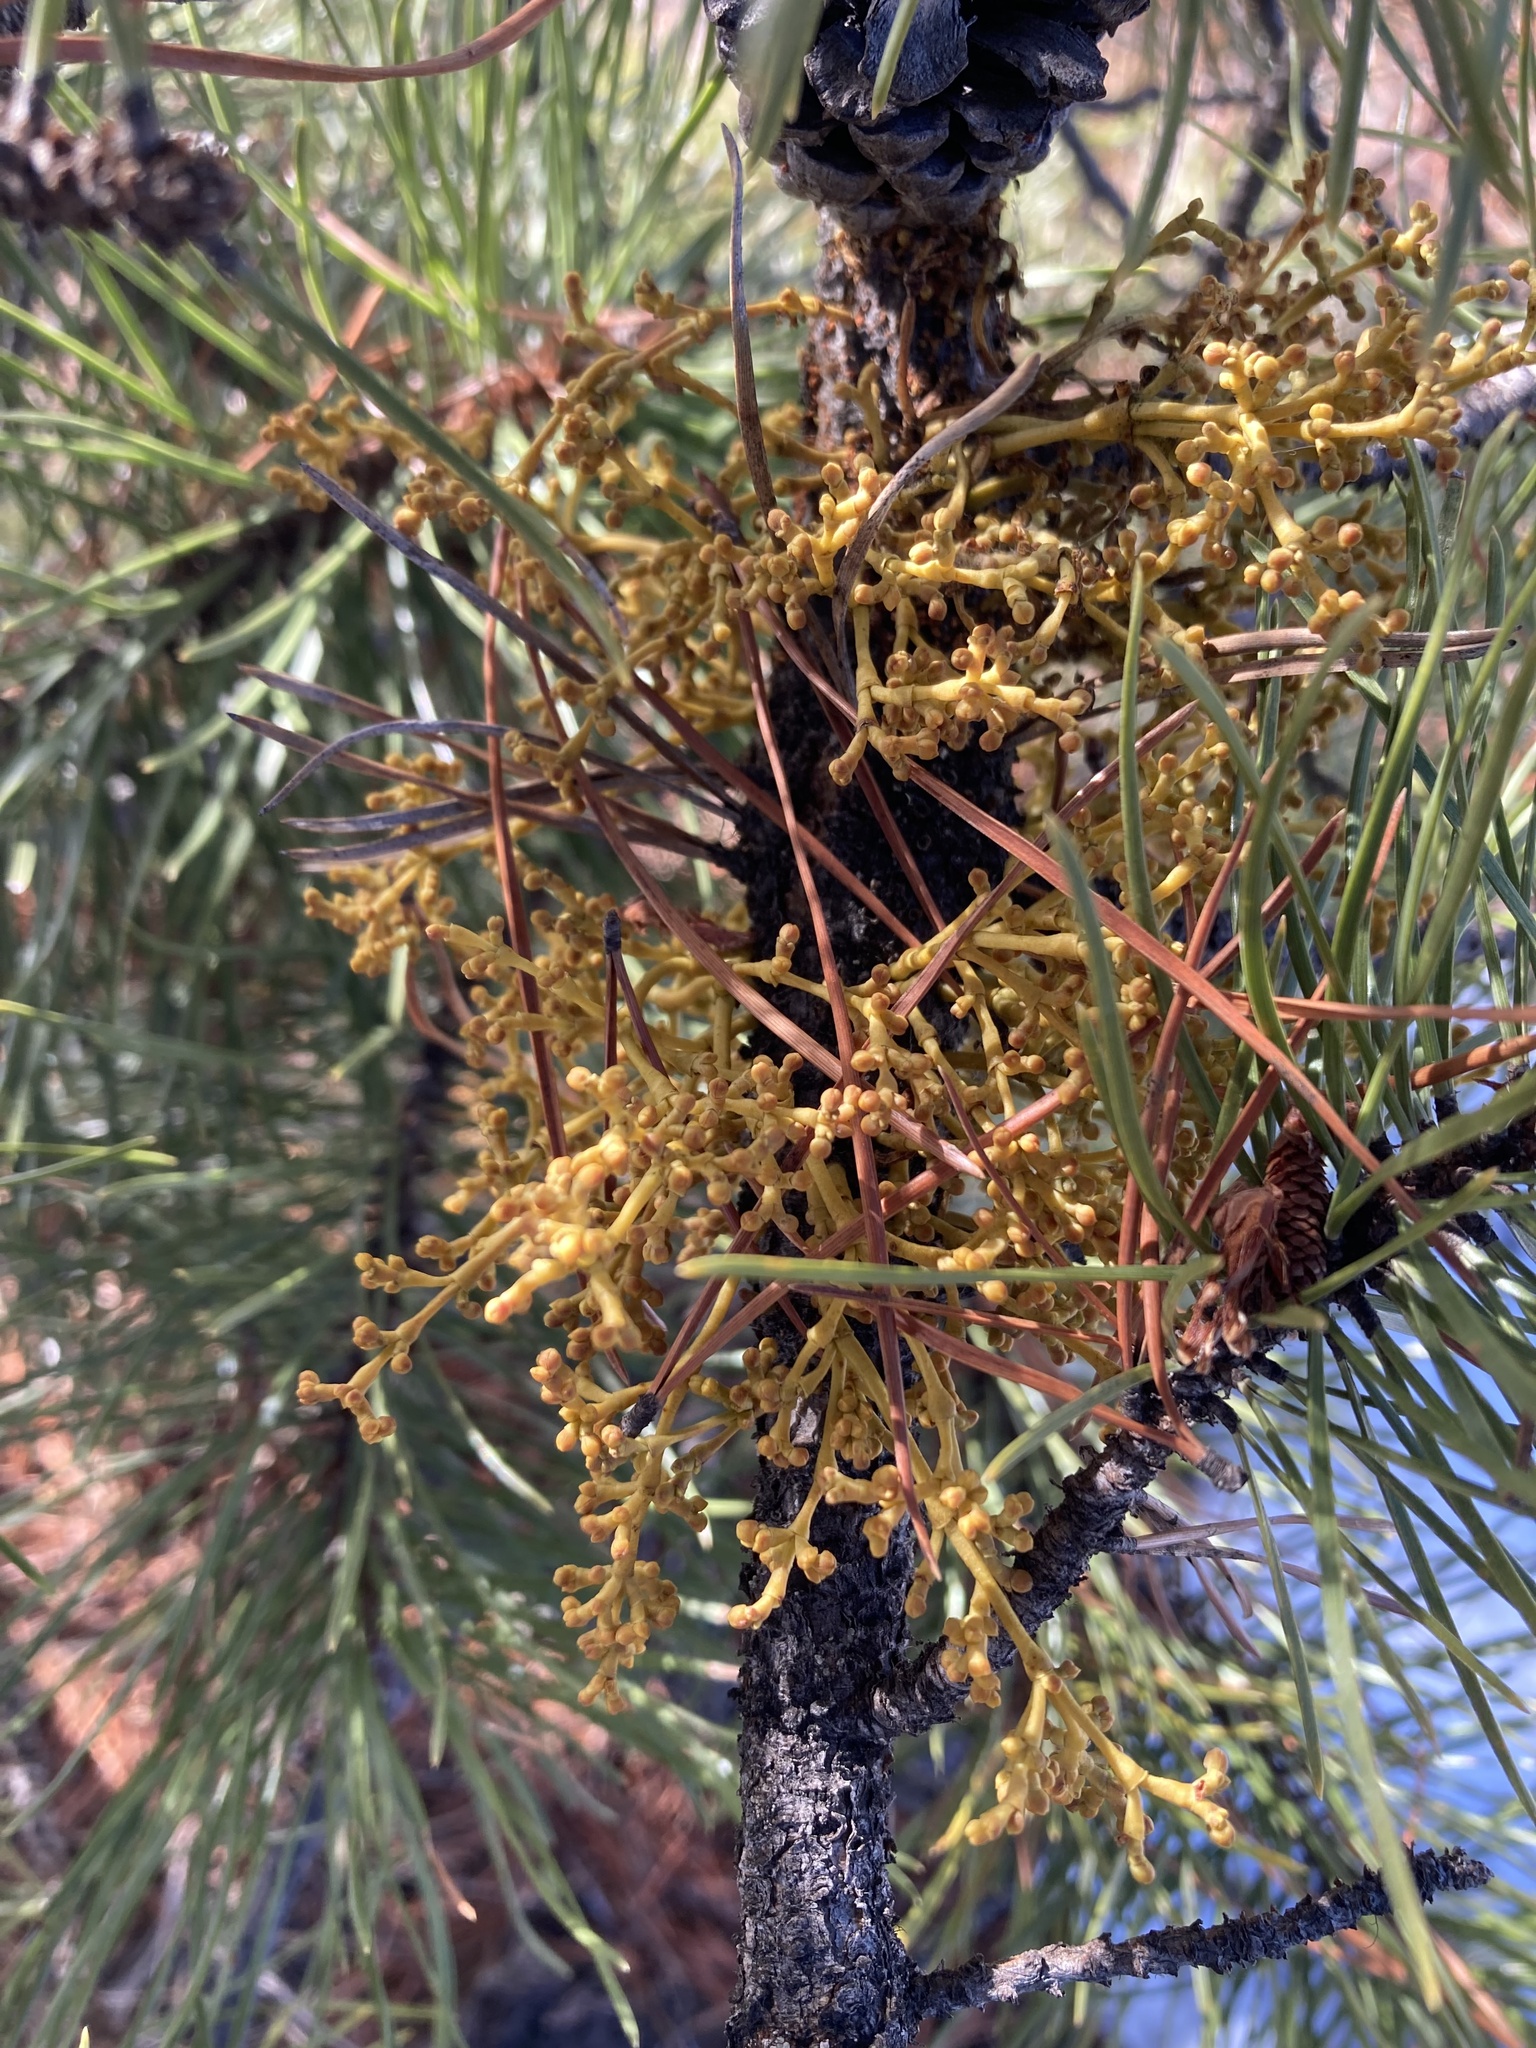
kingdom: Plantae
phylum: Tracheophyta
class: Magnoliopsida
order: Santalales
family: Viscaceae
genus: Arceuthobium
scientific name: Arceuthobium americanum
